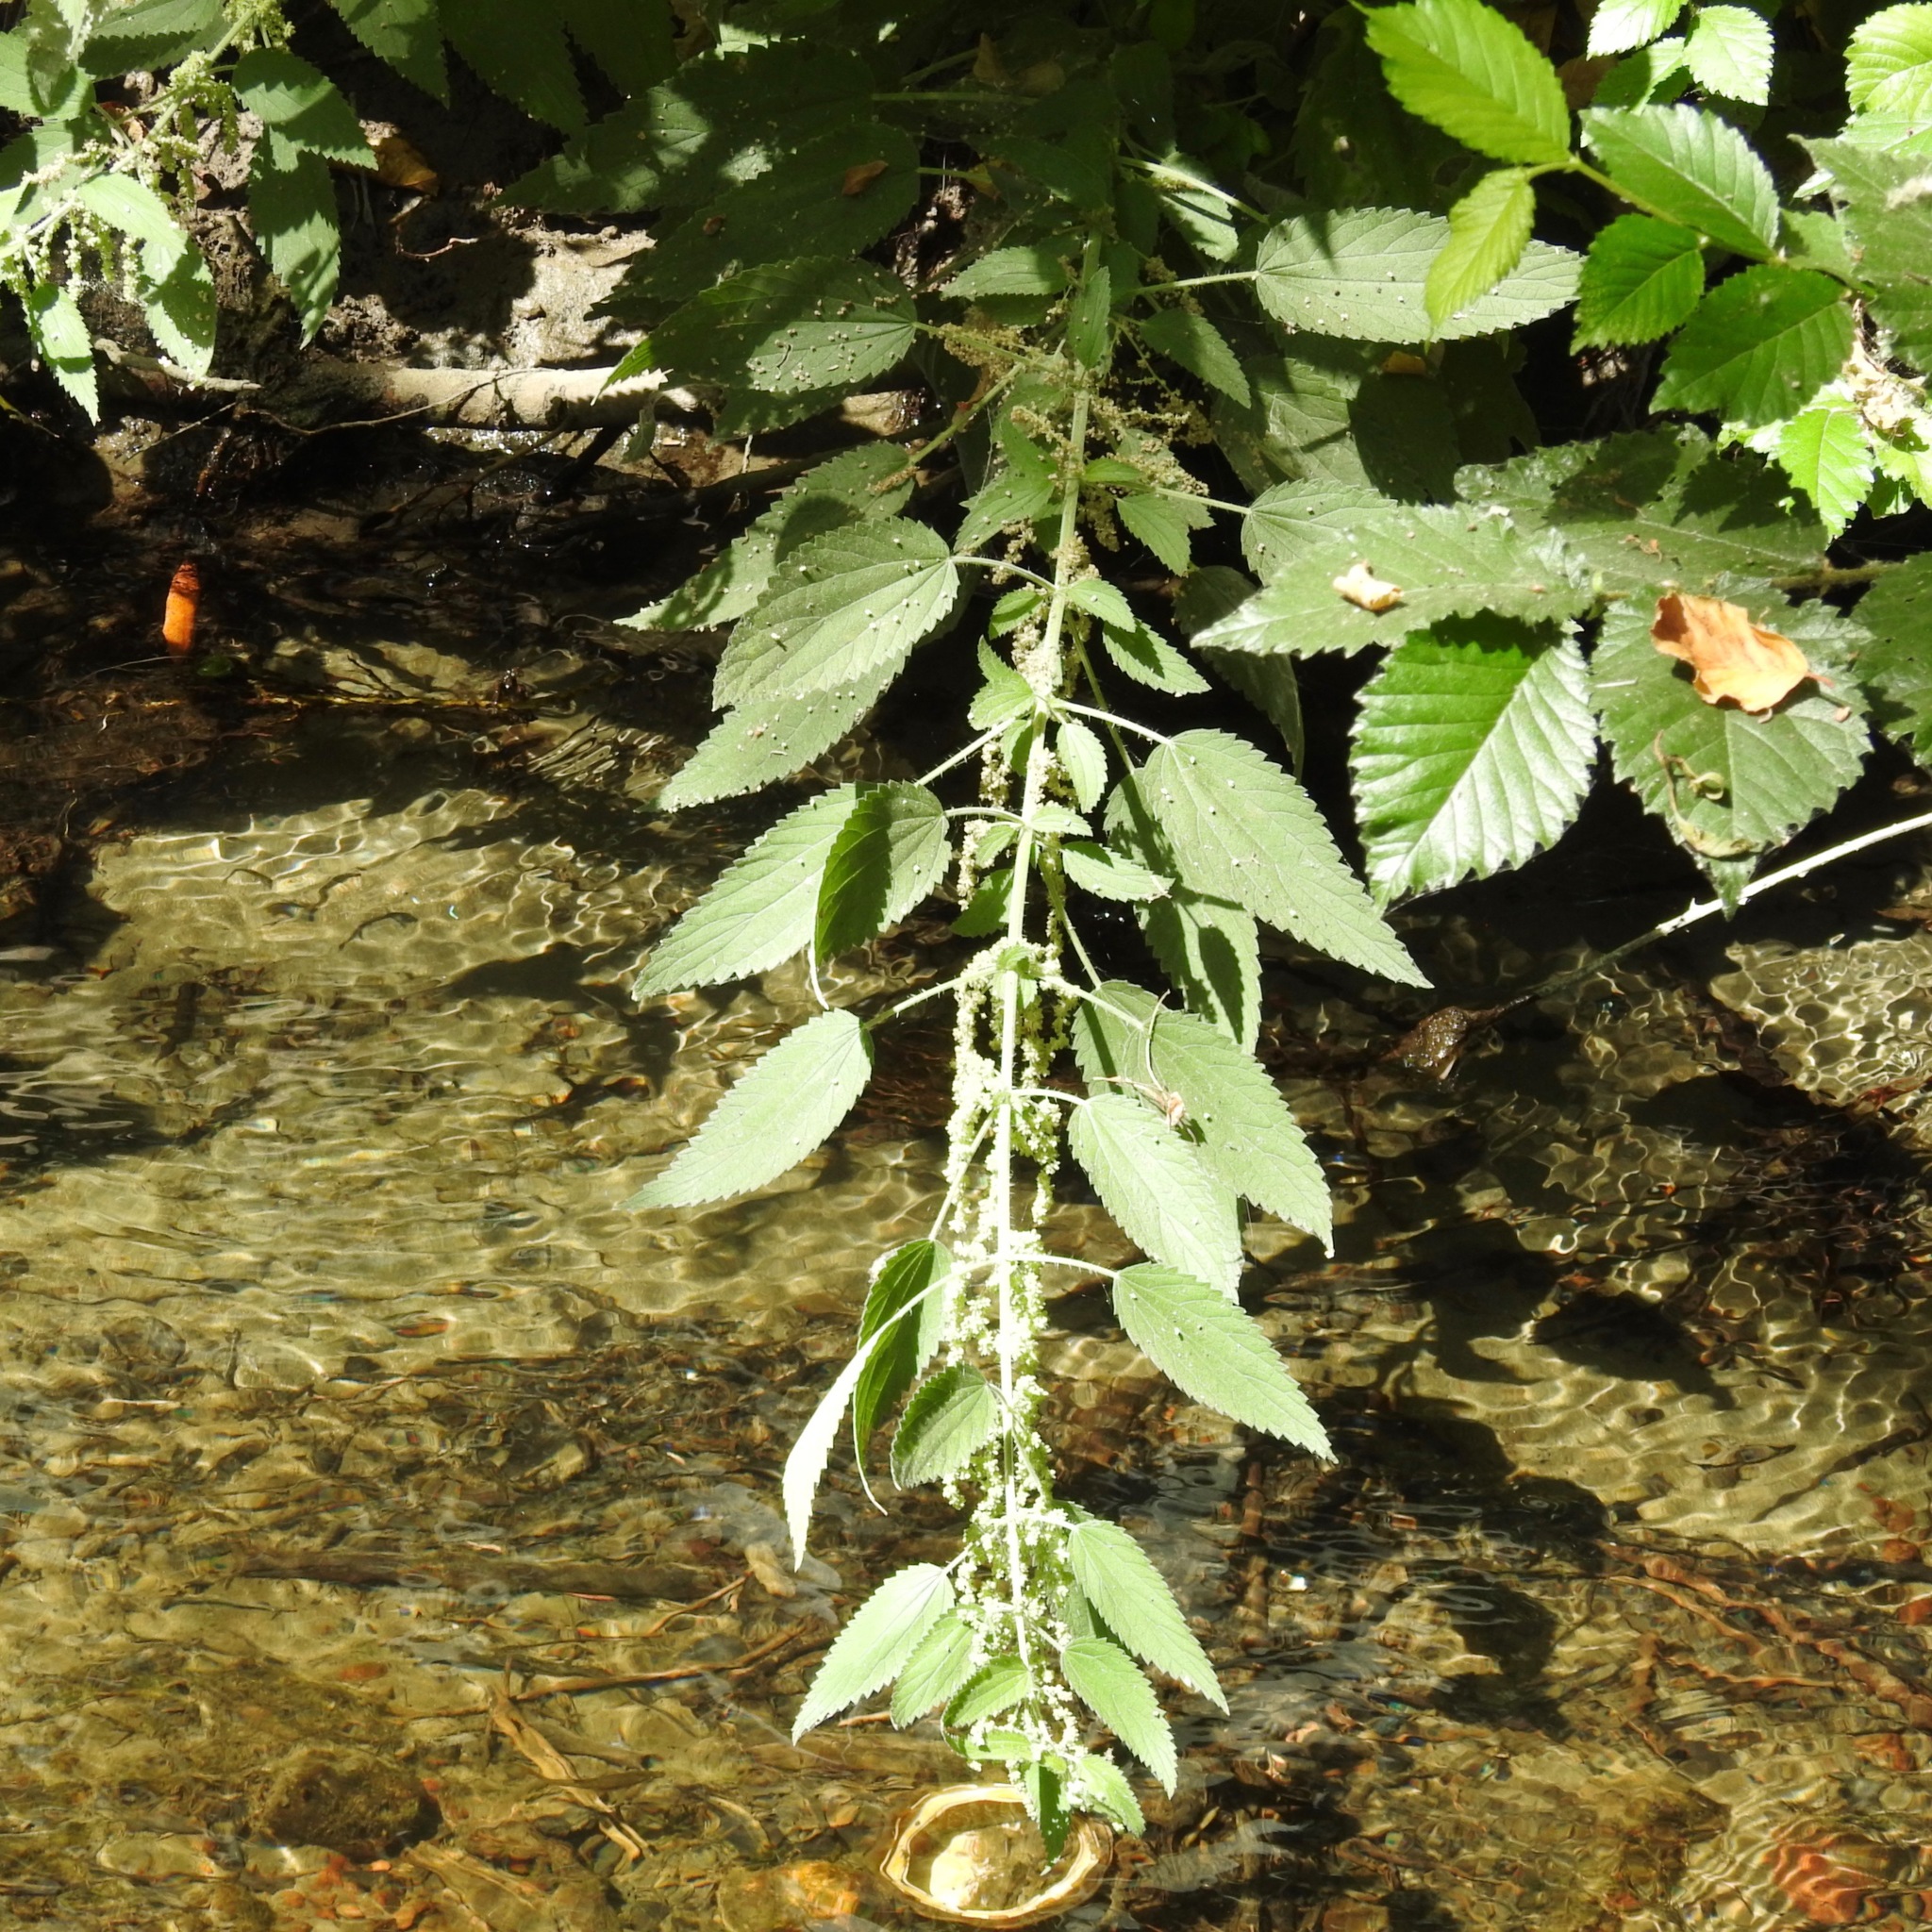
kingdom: Plantae
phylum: Tracheophyta
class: Magnoliopsida
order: Rosales
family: Urticaceae
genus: Urtica
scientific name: Urtica dioica
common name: Common nettle
